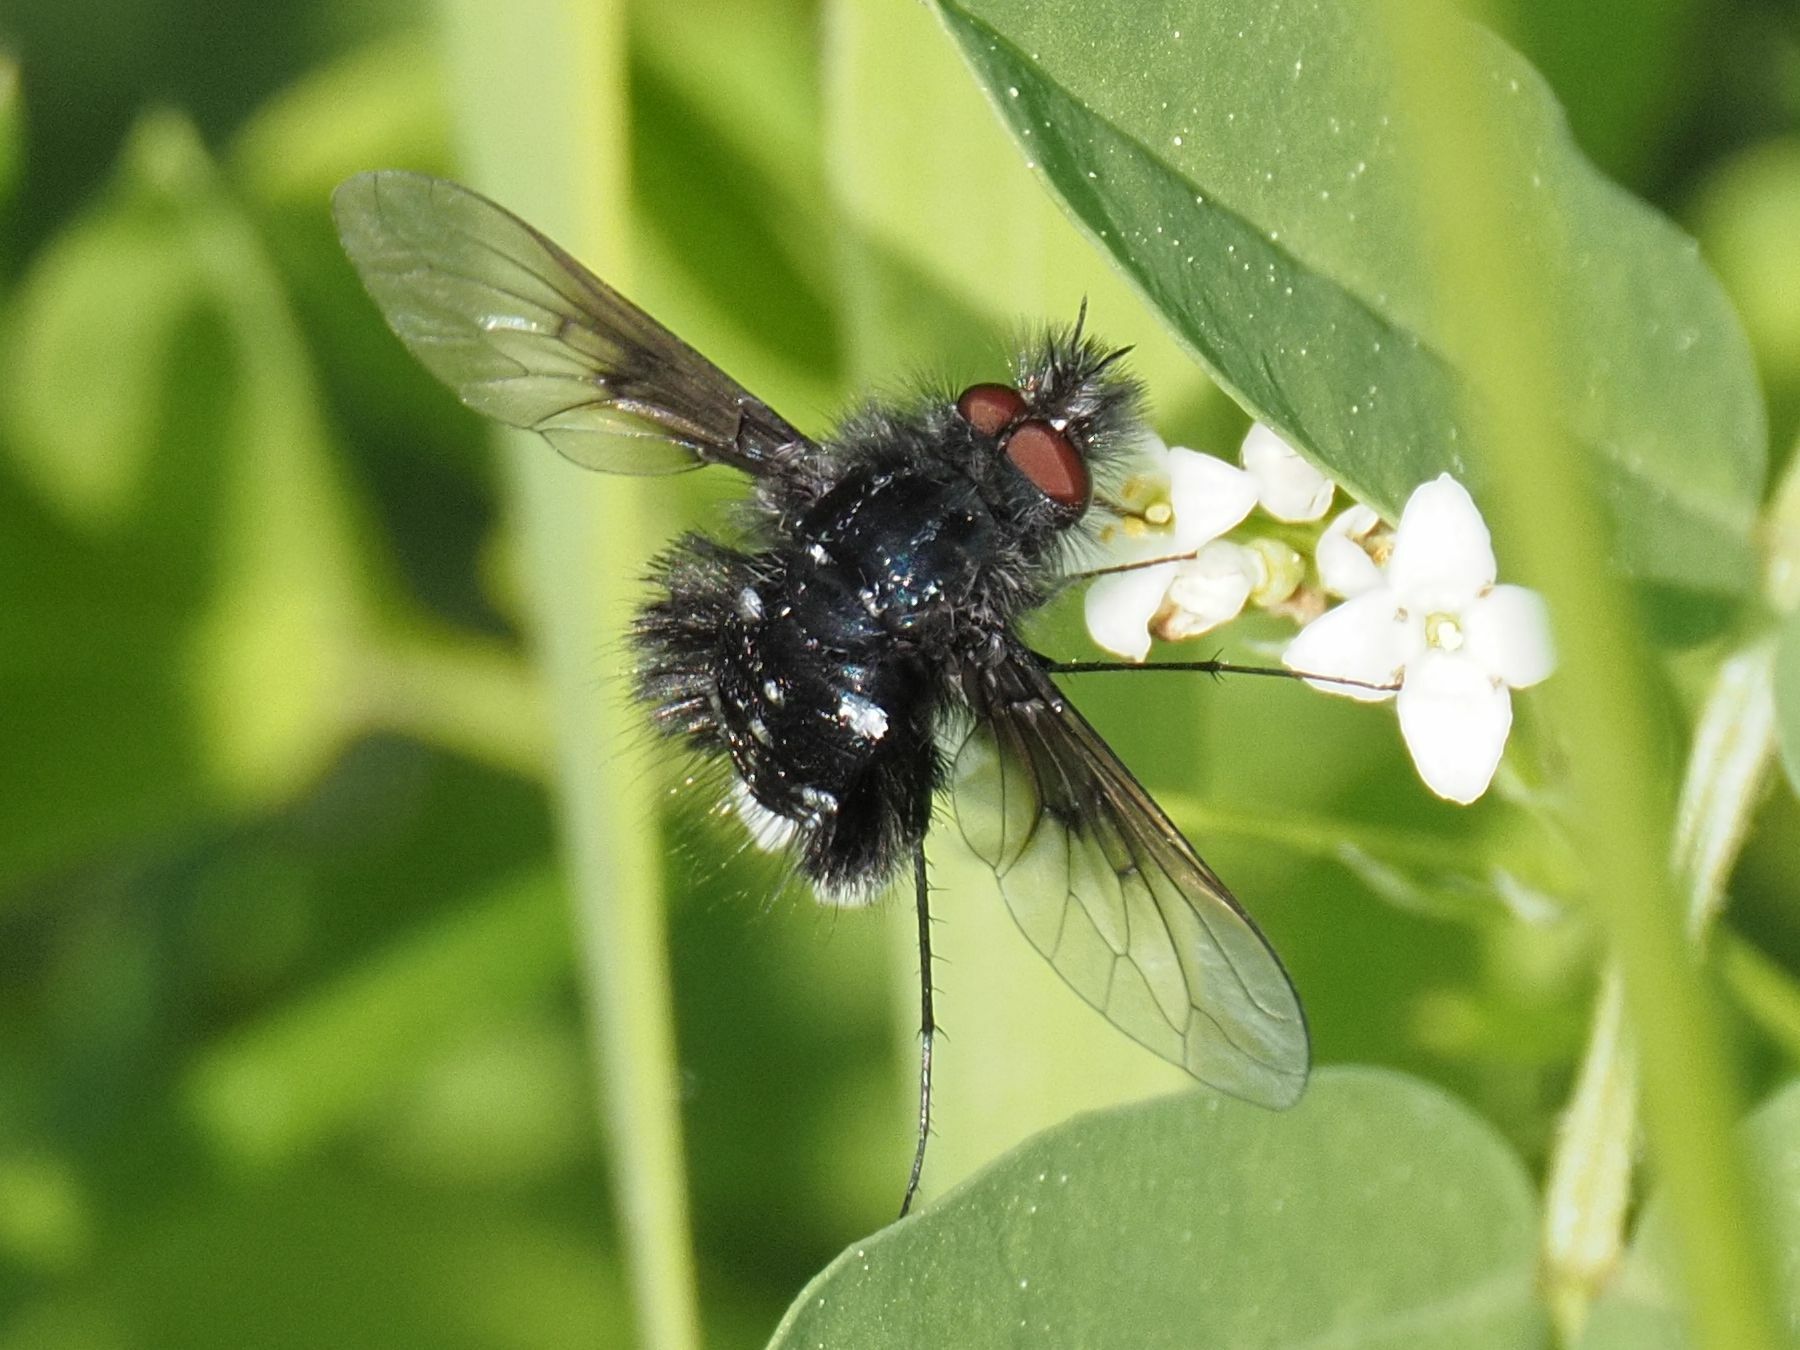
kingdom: Animalia
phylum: Arthropoda
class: Insecta
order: Diptera
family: Bombyliidae
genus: Bombylella
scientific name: Bombylella atra
